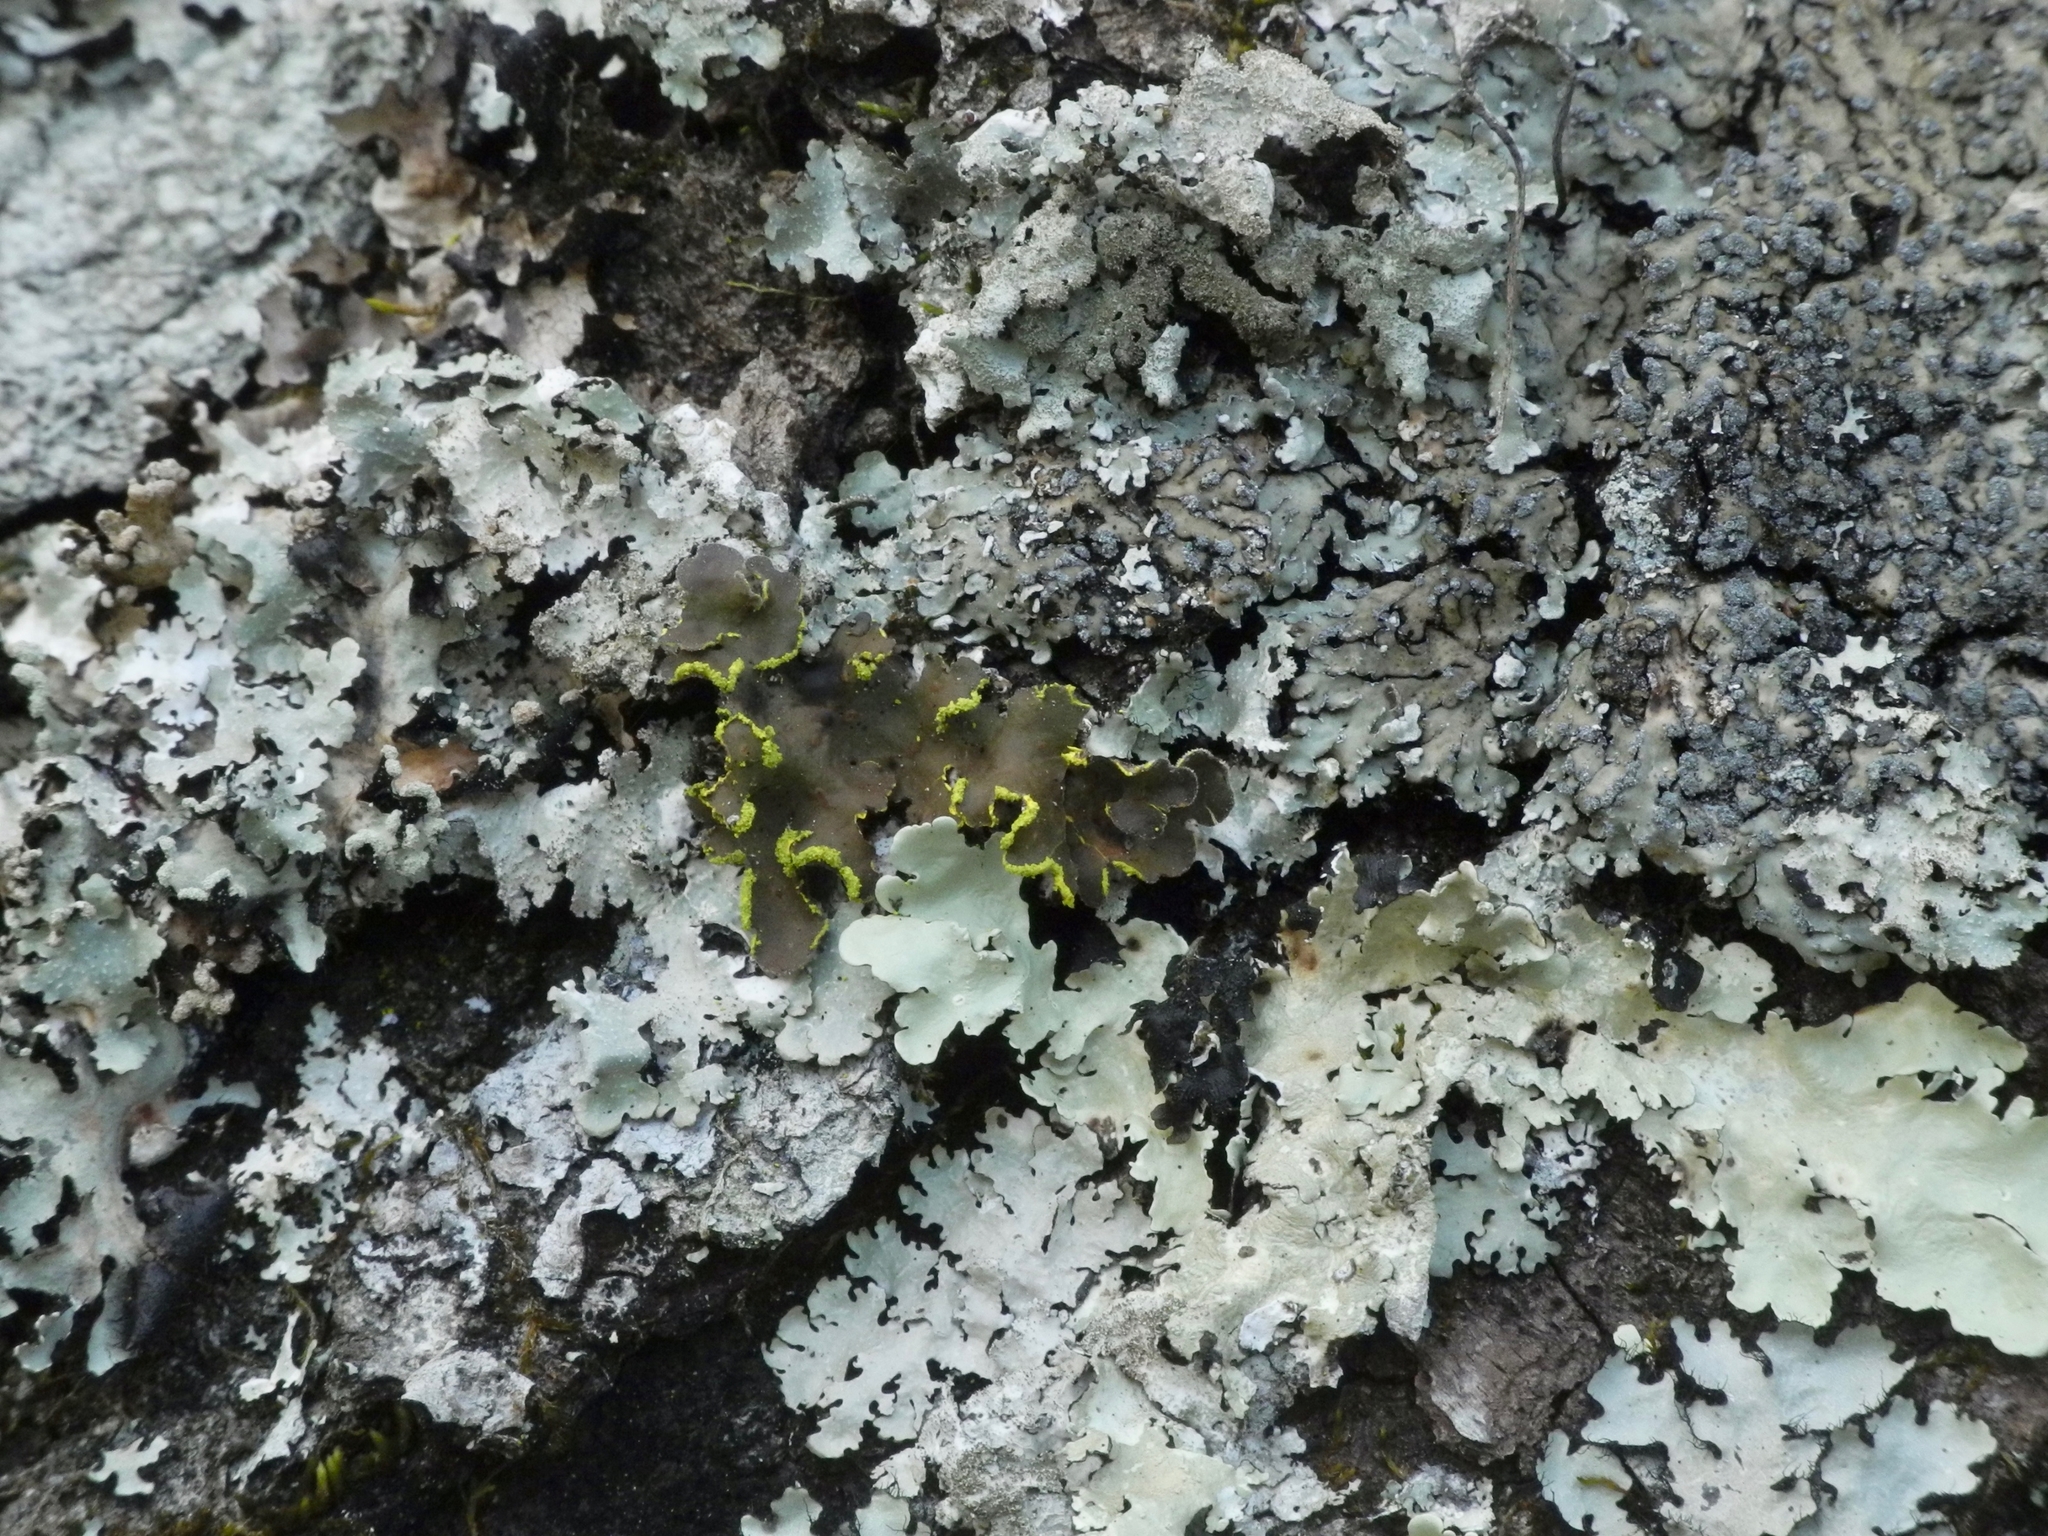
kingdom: Fungi
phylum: Ascomycota
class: Lecanoromycetes
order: Peltigerales
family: Lobariaceae
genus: Pseudocyphellaria
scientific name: Pseudocyphellaria aurata
